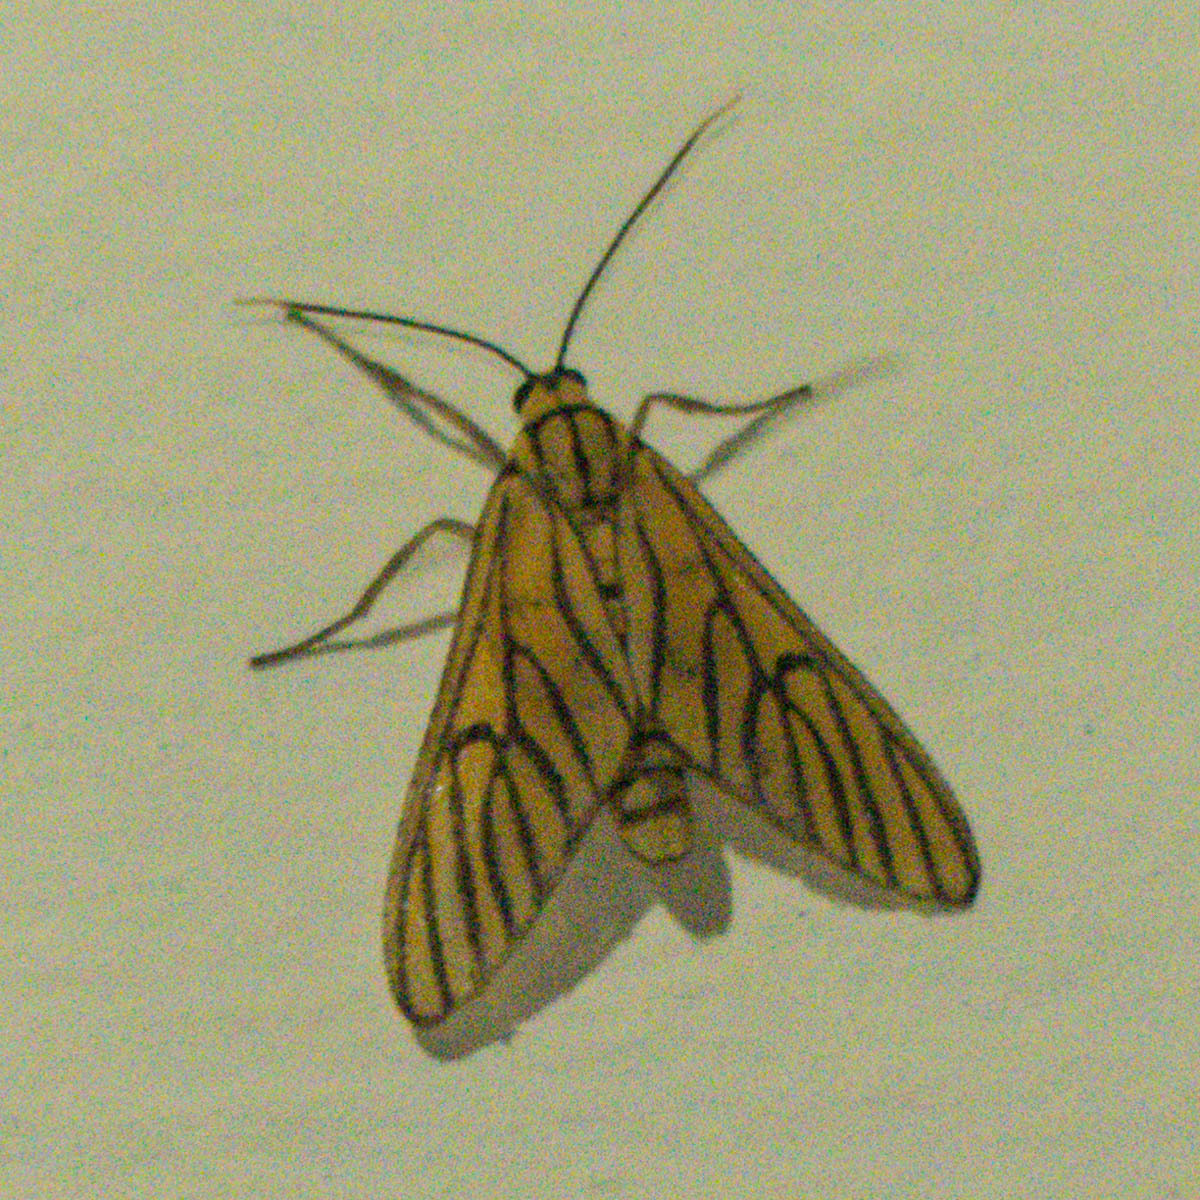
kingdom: Animalia
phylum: Arthropoda
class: Insecta
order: Lepidoptera
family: Erebidae
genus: Amata
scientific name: Amata tigrina
